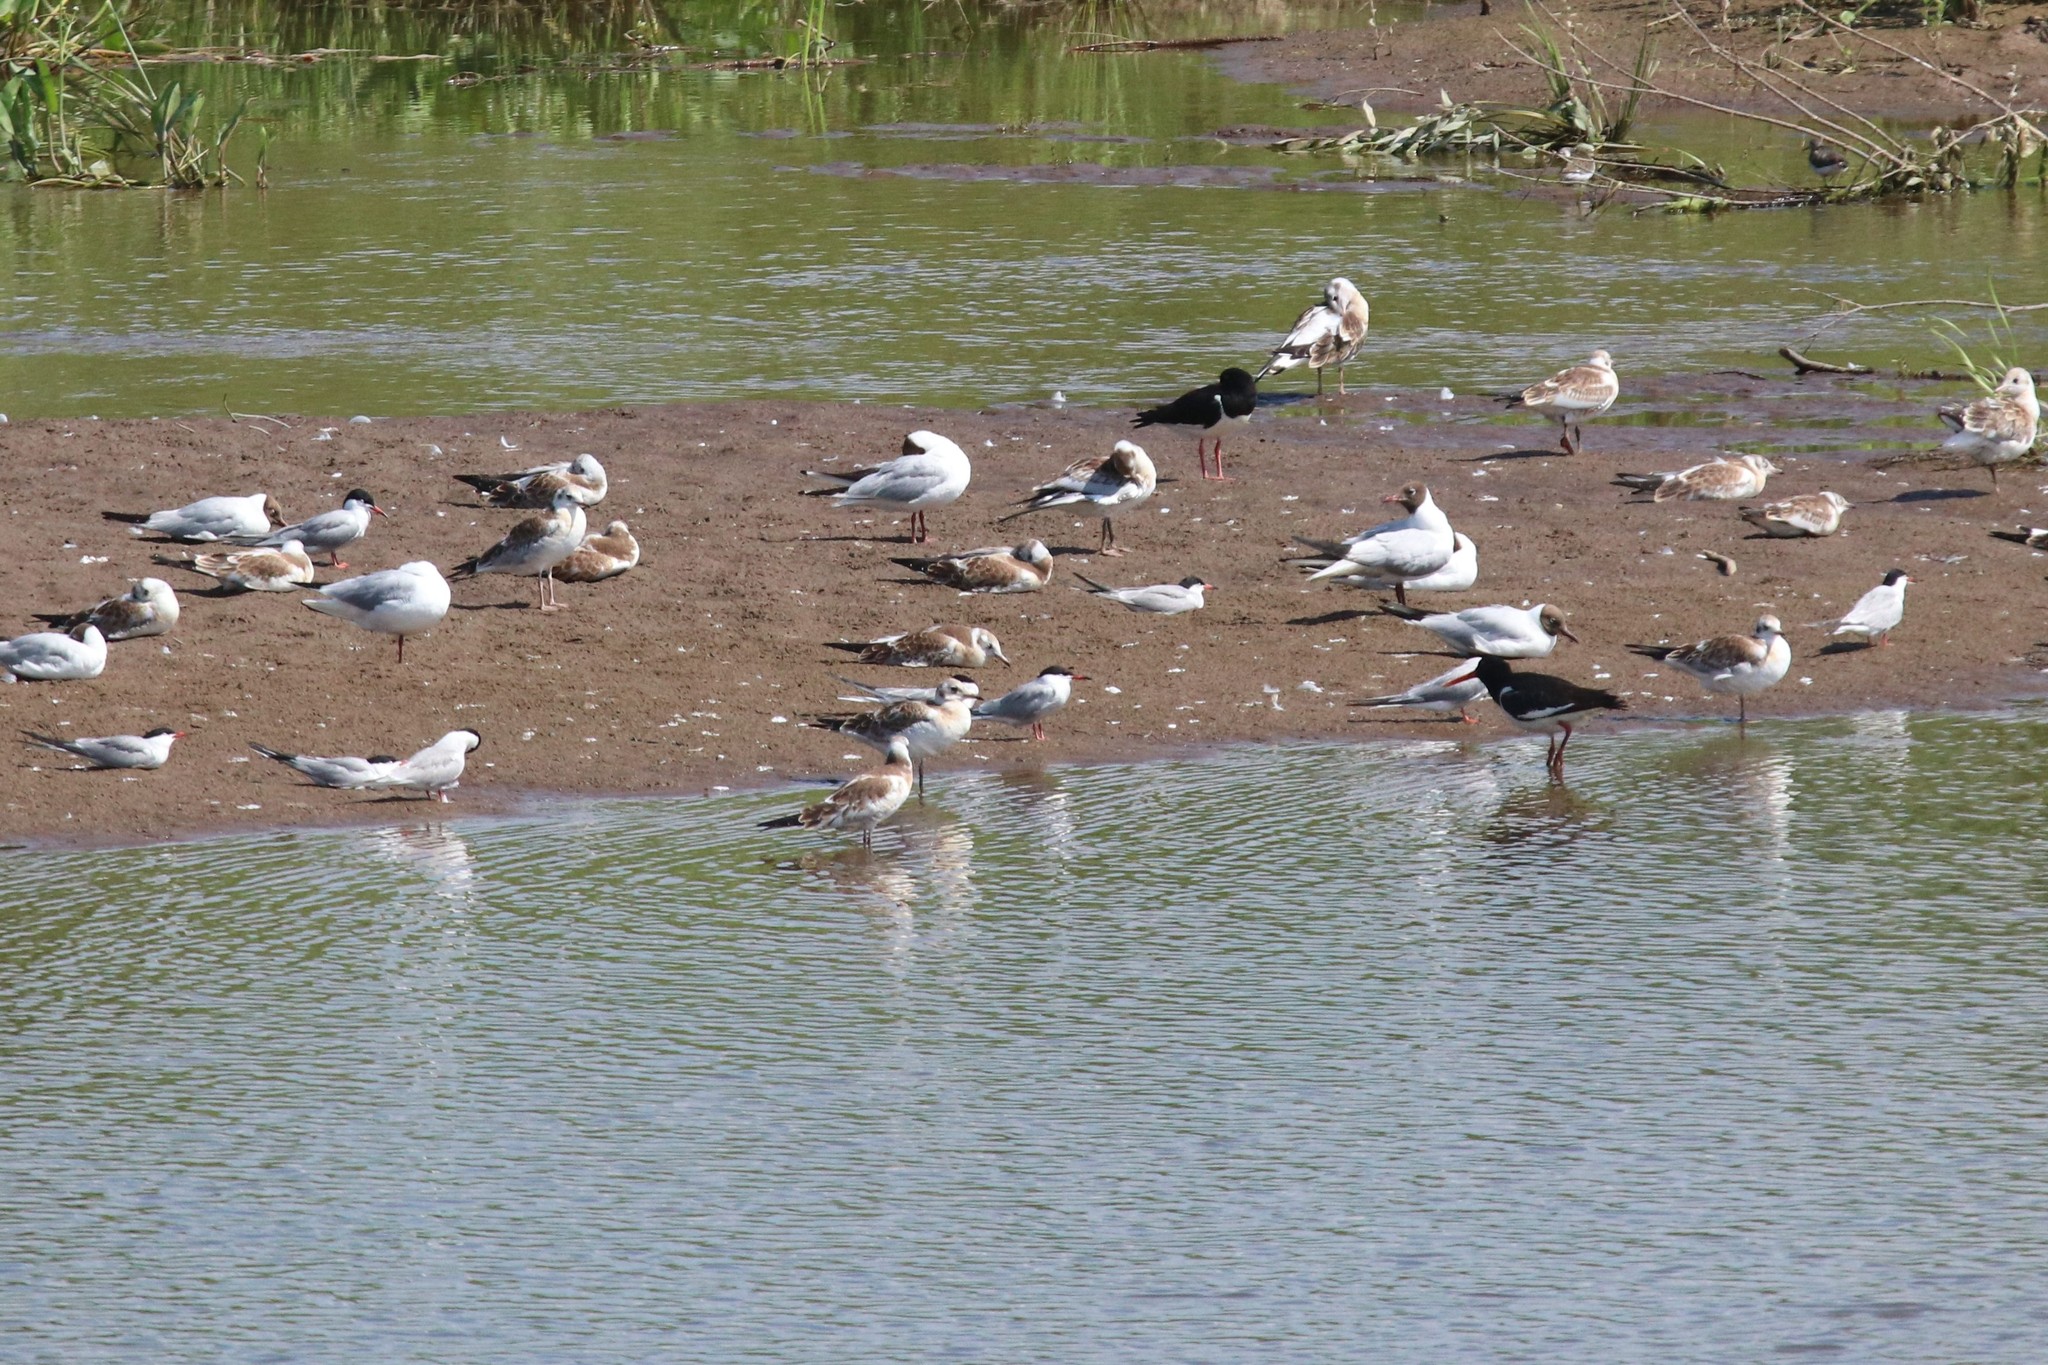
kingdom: Animalia
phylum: Chordata
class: Aves
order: Charadriiformes
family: Laridae
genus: Chroicocephalus
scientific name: Chroicocephalus ridibundus
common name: Black-headed gull
